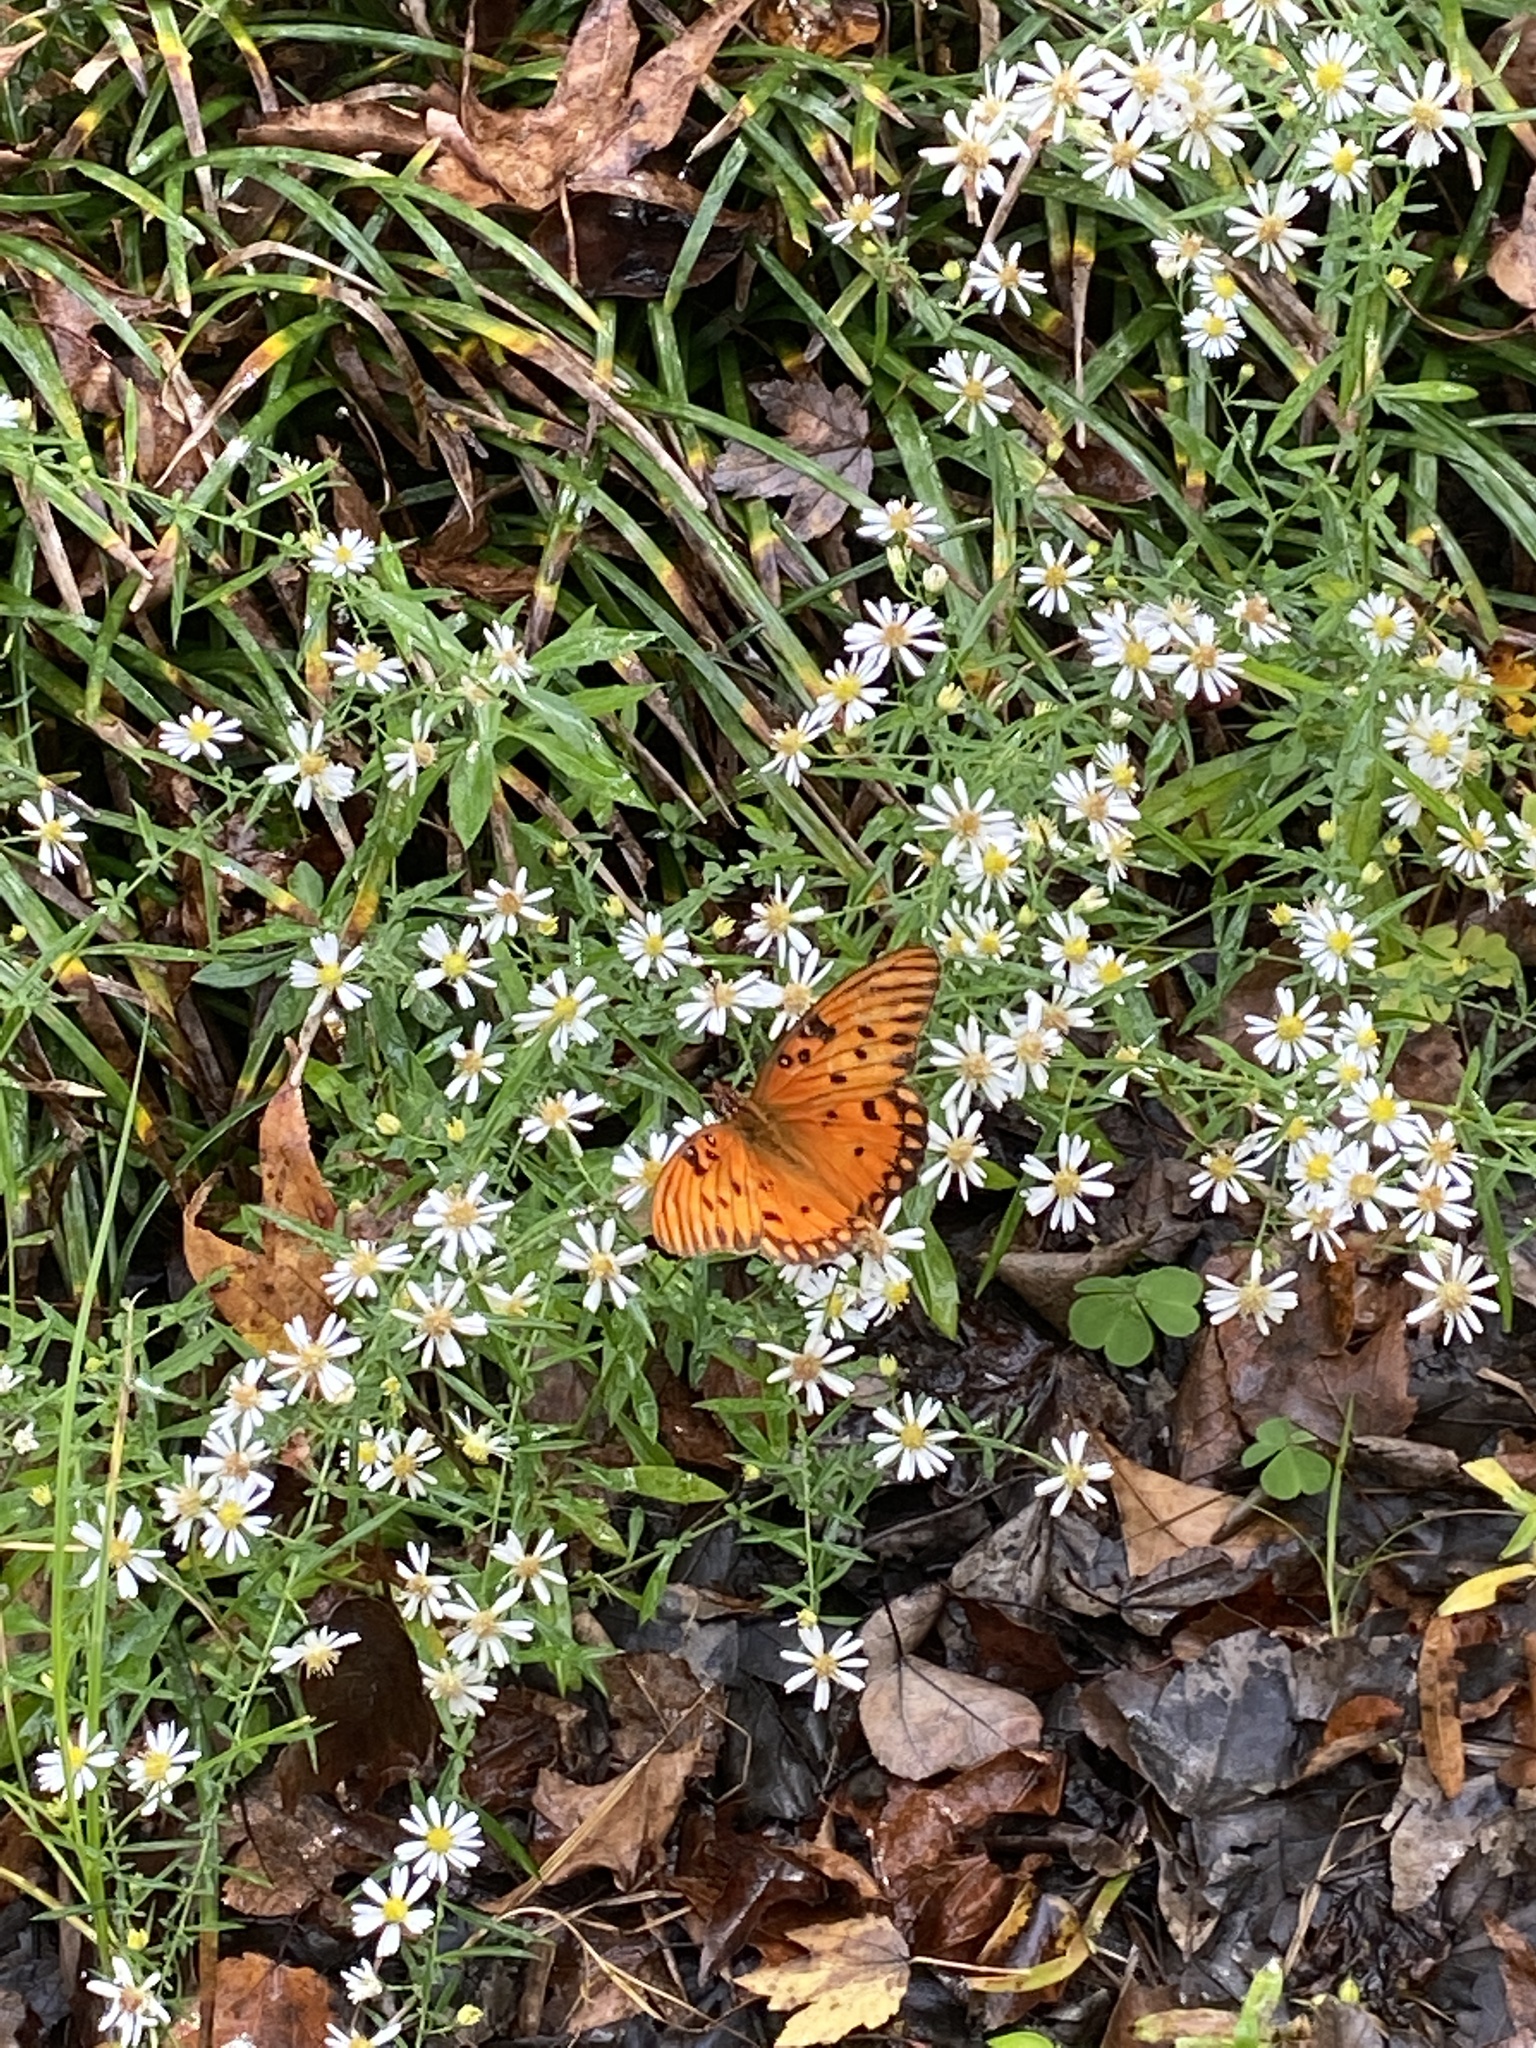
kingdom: Animalia
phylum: Arthropoda
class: Insecta
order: Lepidoptera
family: Nymphalidae
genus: Dione
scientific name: Dione vanillae
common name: Gulf fritillary
